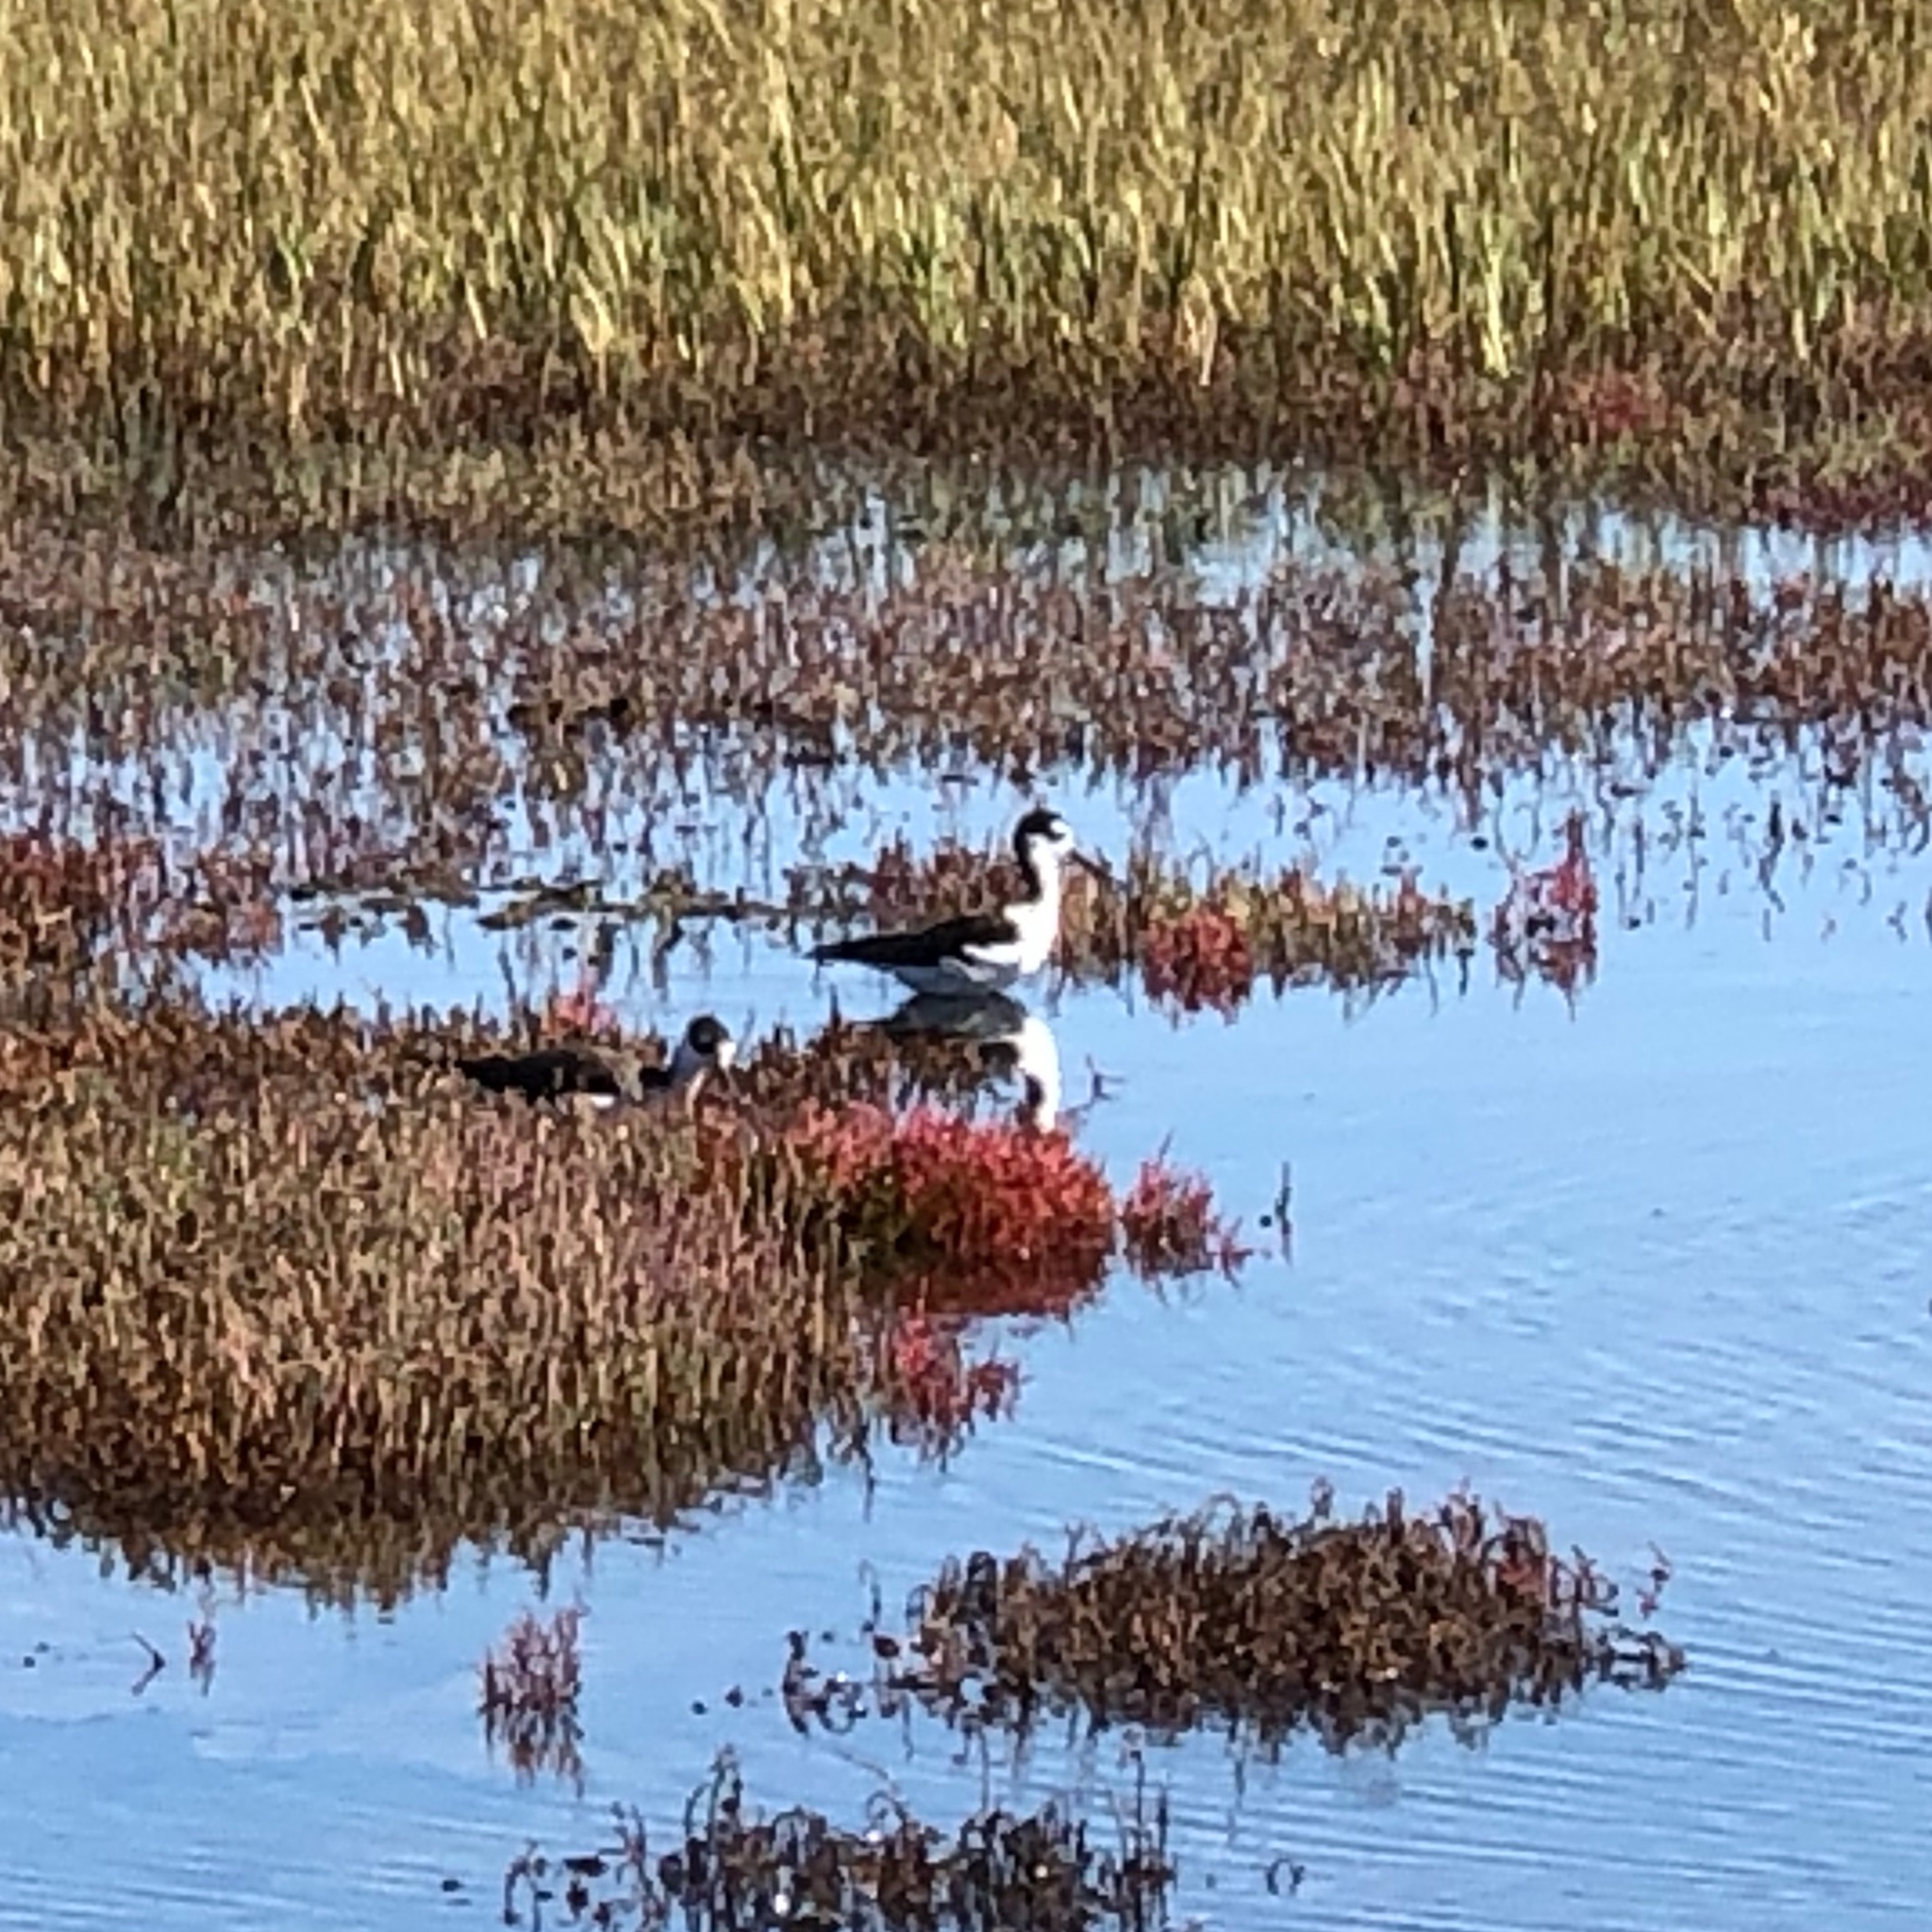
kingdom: Animalia
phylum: Chordata
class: Aves
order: Charadriiformes
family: Recurvirostridae
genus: Himantopus
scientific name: Himantopus mexicanus
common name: Black-necked stilt
